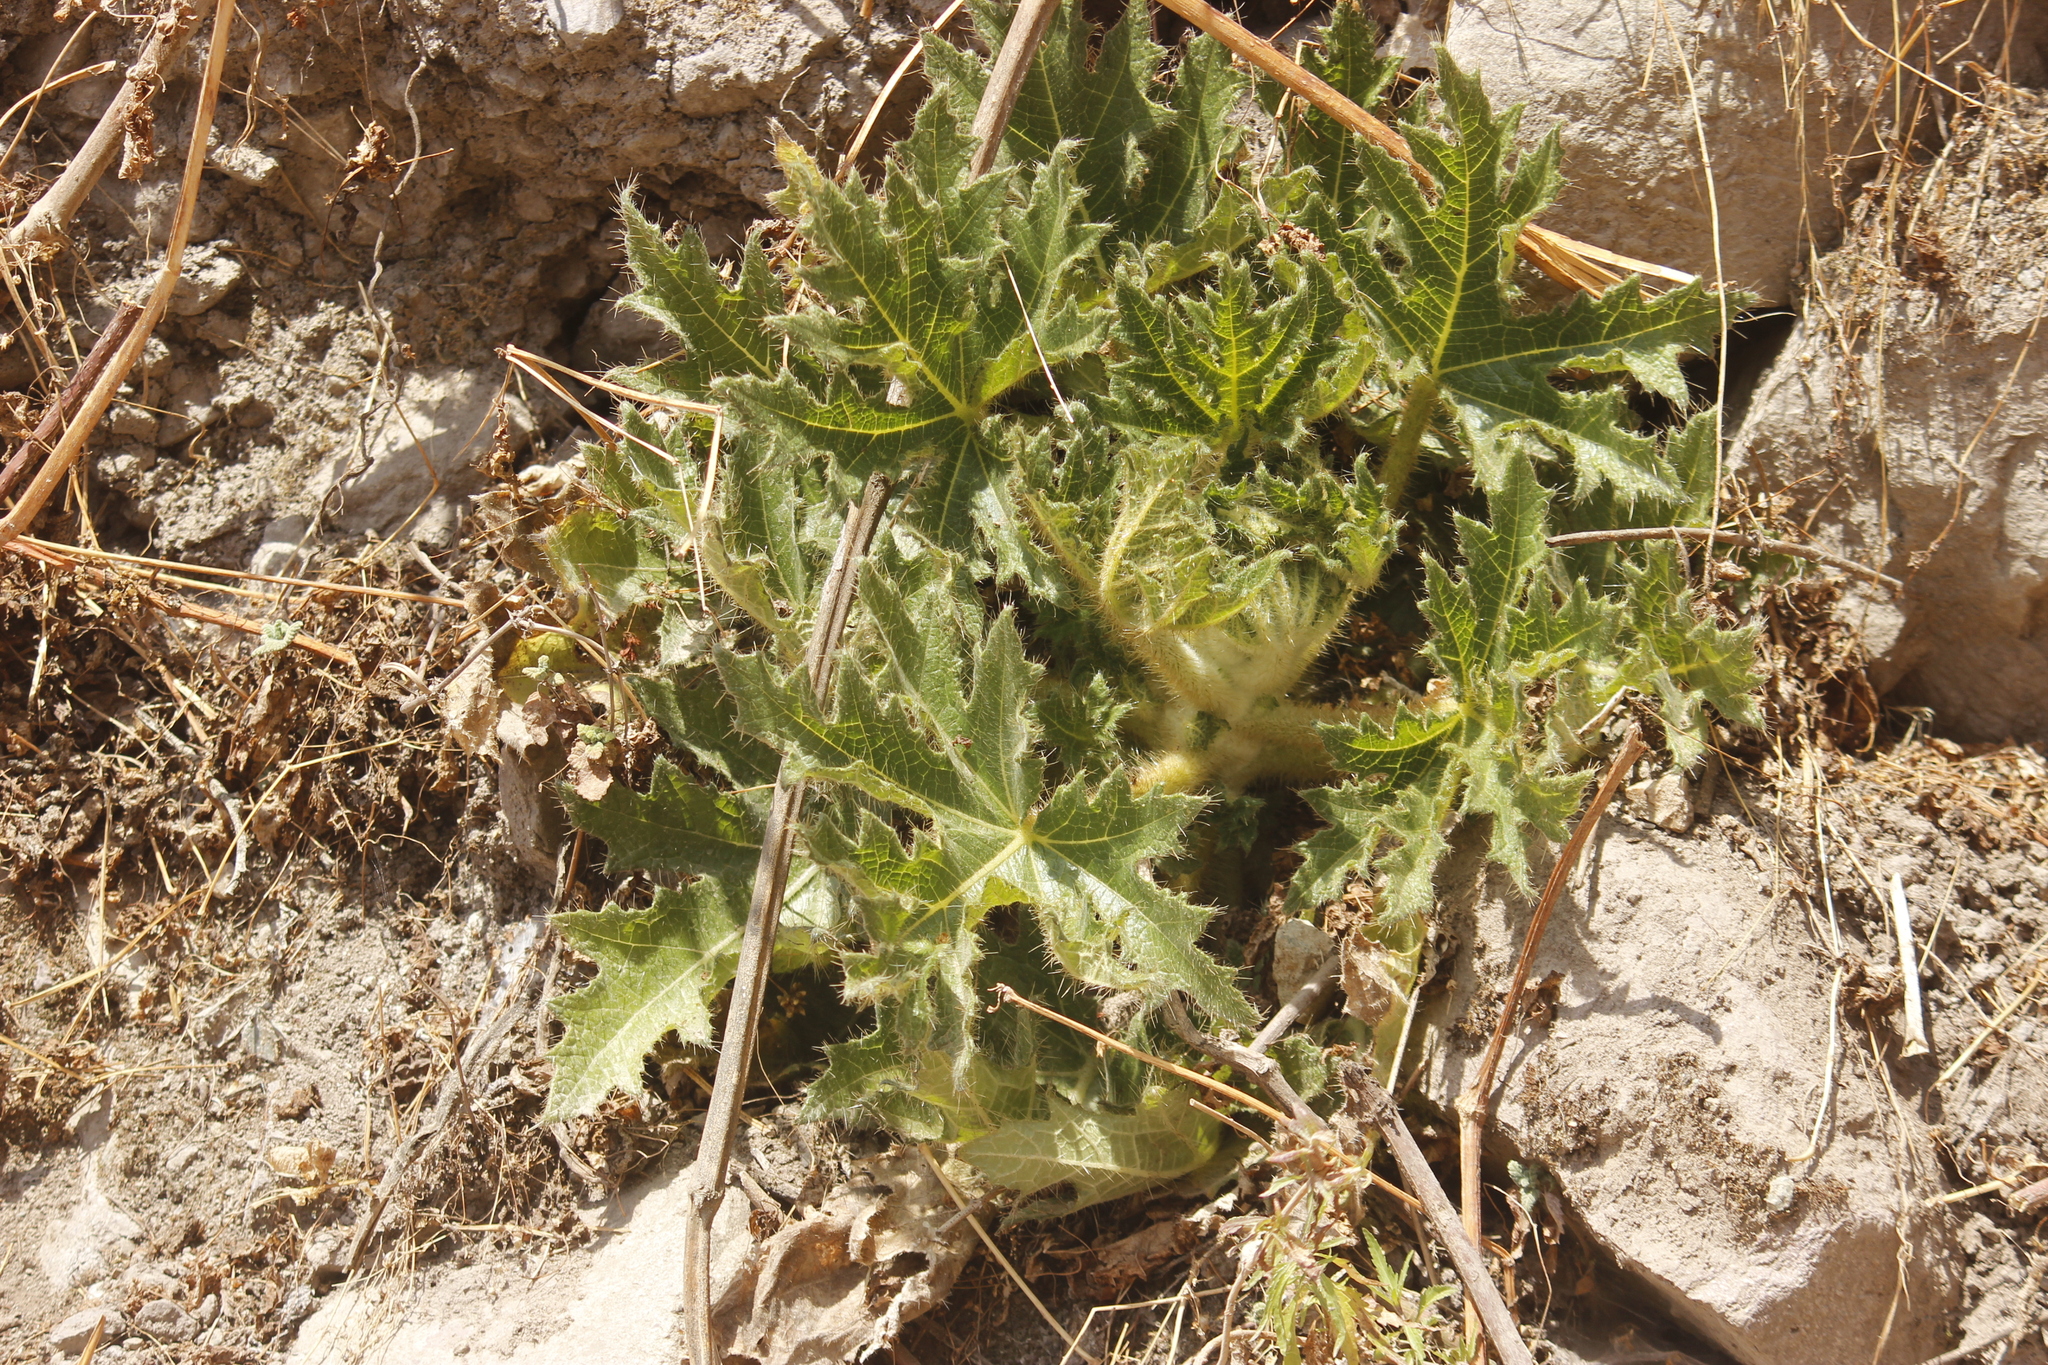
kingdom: Plantae
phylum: Tracheophyta
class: Magnoliopsida
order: Cornales
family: Loasaceae
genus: Nasa
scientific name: Nasa macrophylla
